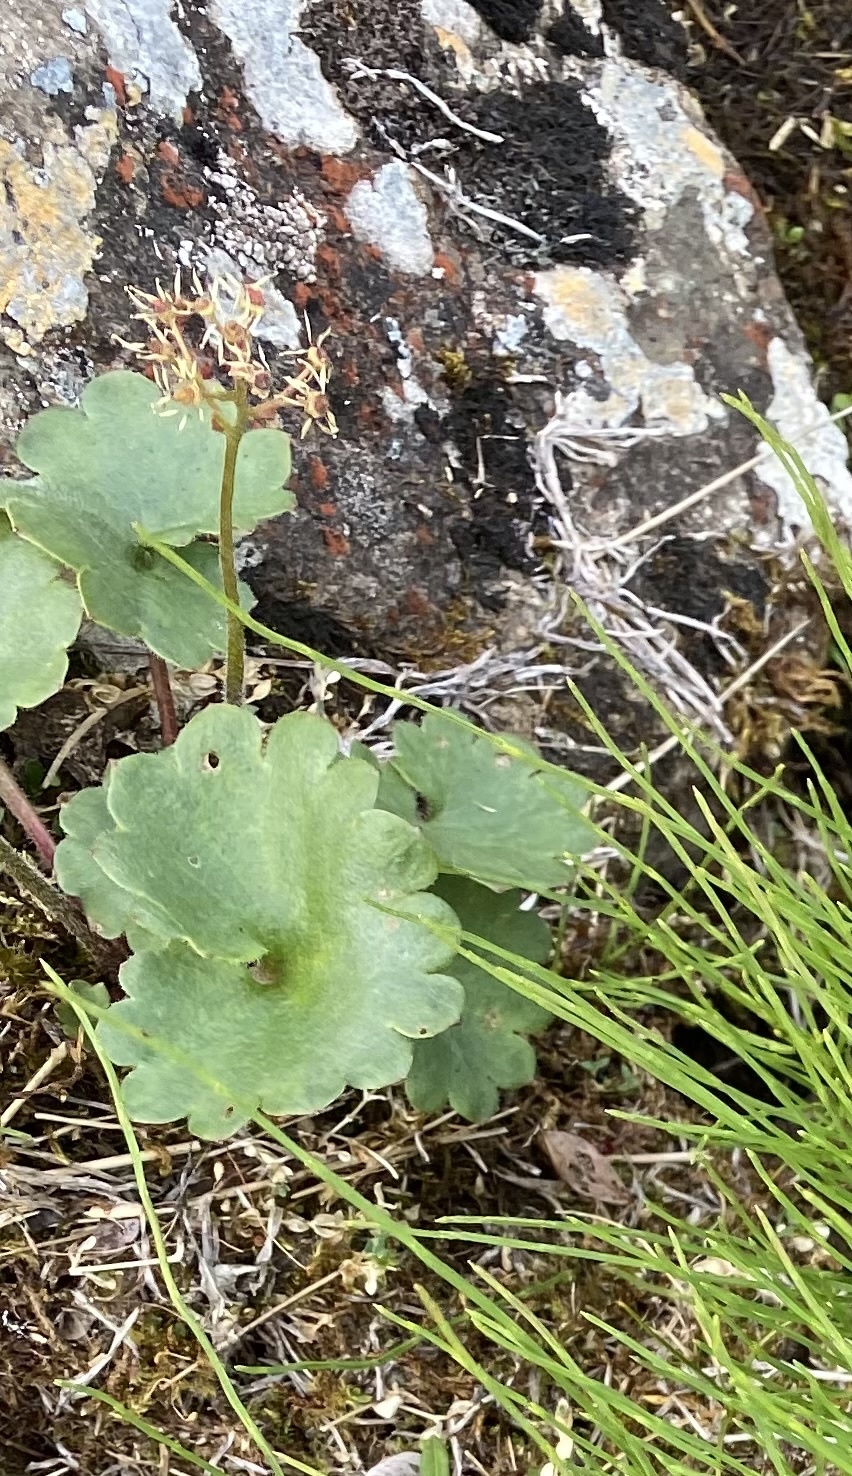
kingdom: Plantae
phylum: Tracheophyta
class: Magnoliopsida
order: Saxifragales
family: Saxifragaceae
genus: Micranthes
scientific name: Micranthes nelsoniana
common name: Nelson's saxifrage
